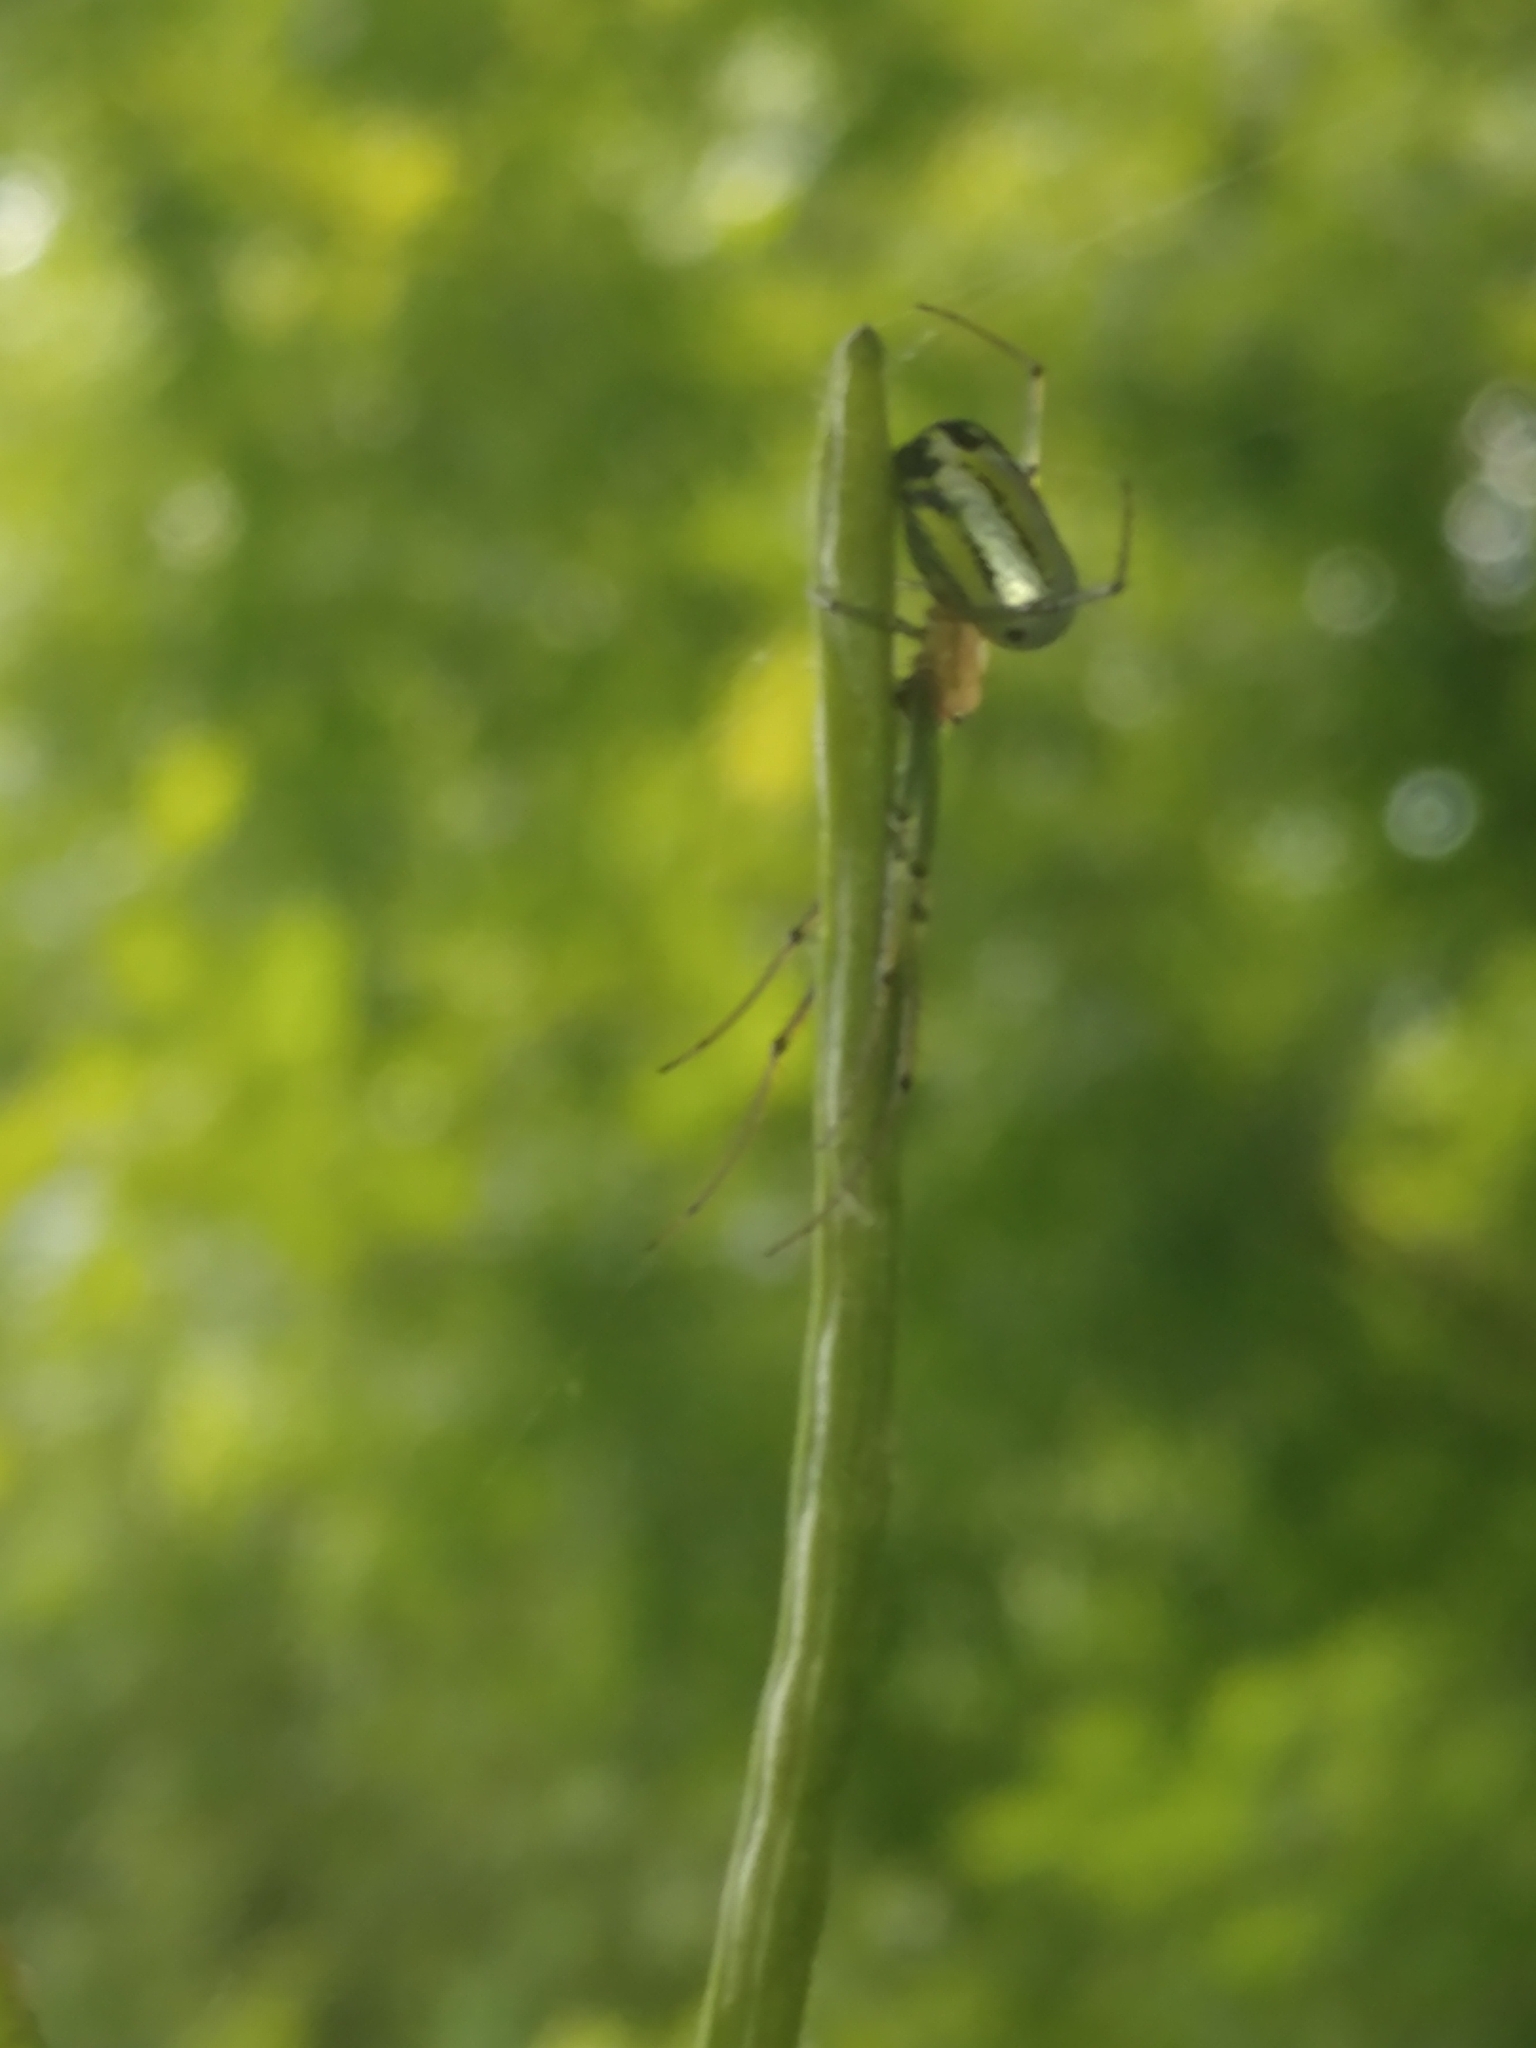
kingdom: Animalia
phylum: Arthropoda
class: Arachnida
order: Araneae
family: Tetragnathidae
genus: Leucauge
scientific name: Leucauge venusta
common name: Longjawed orb weavers
